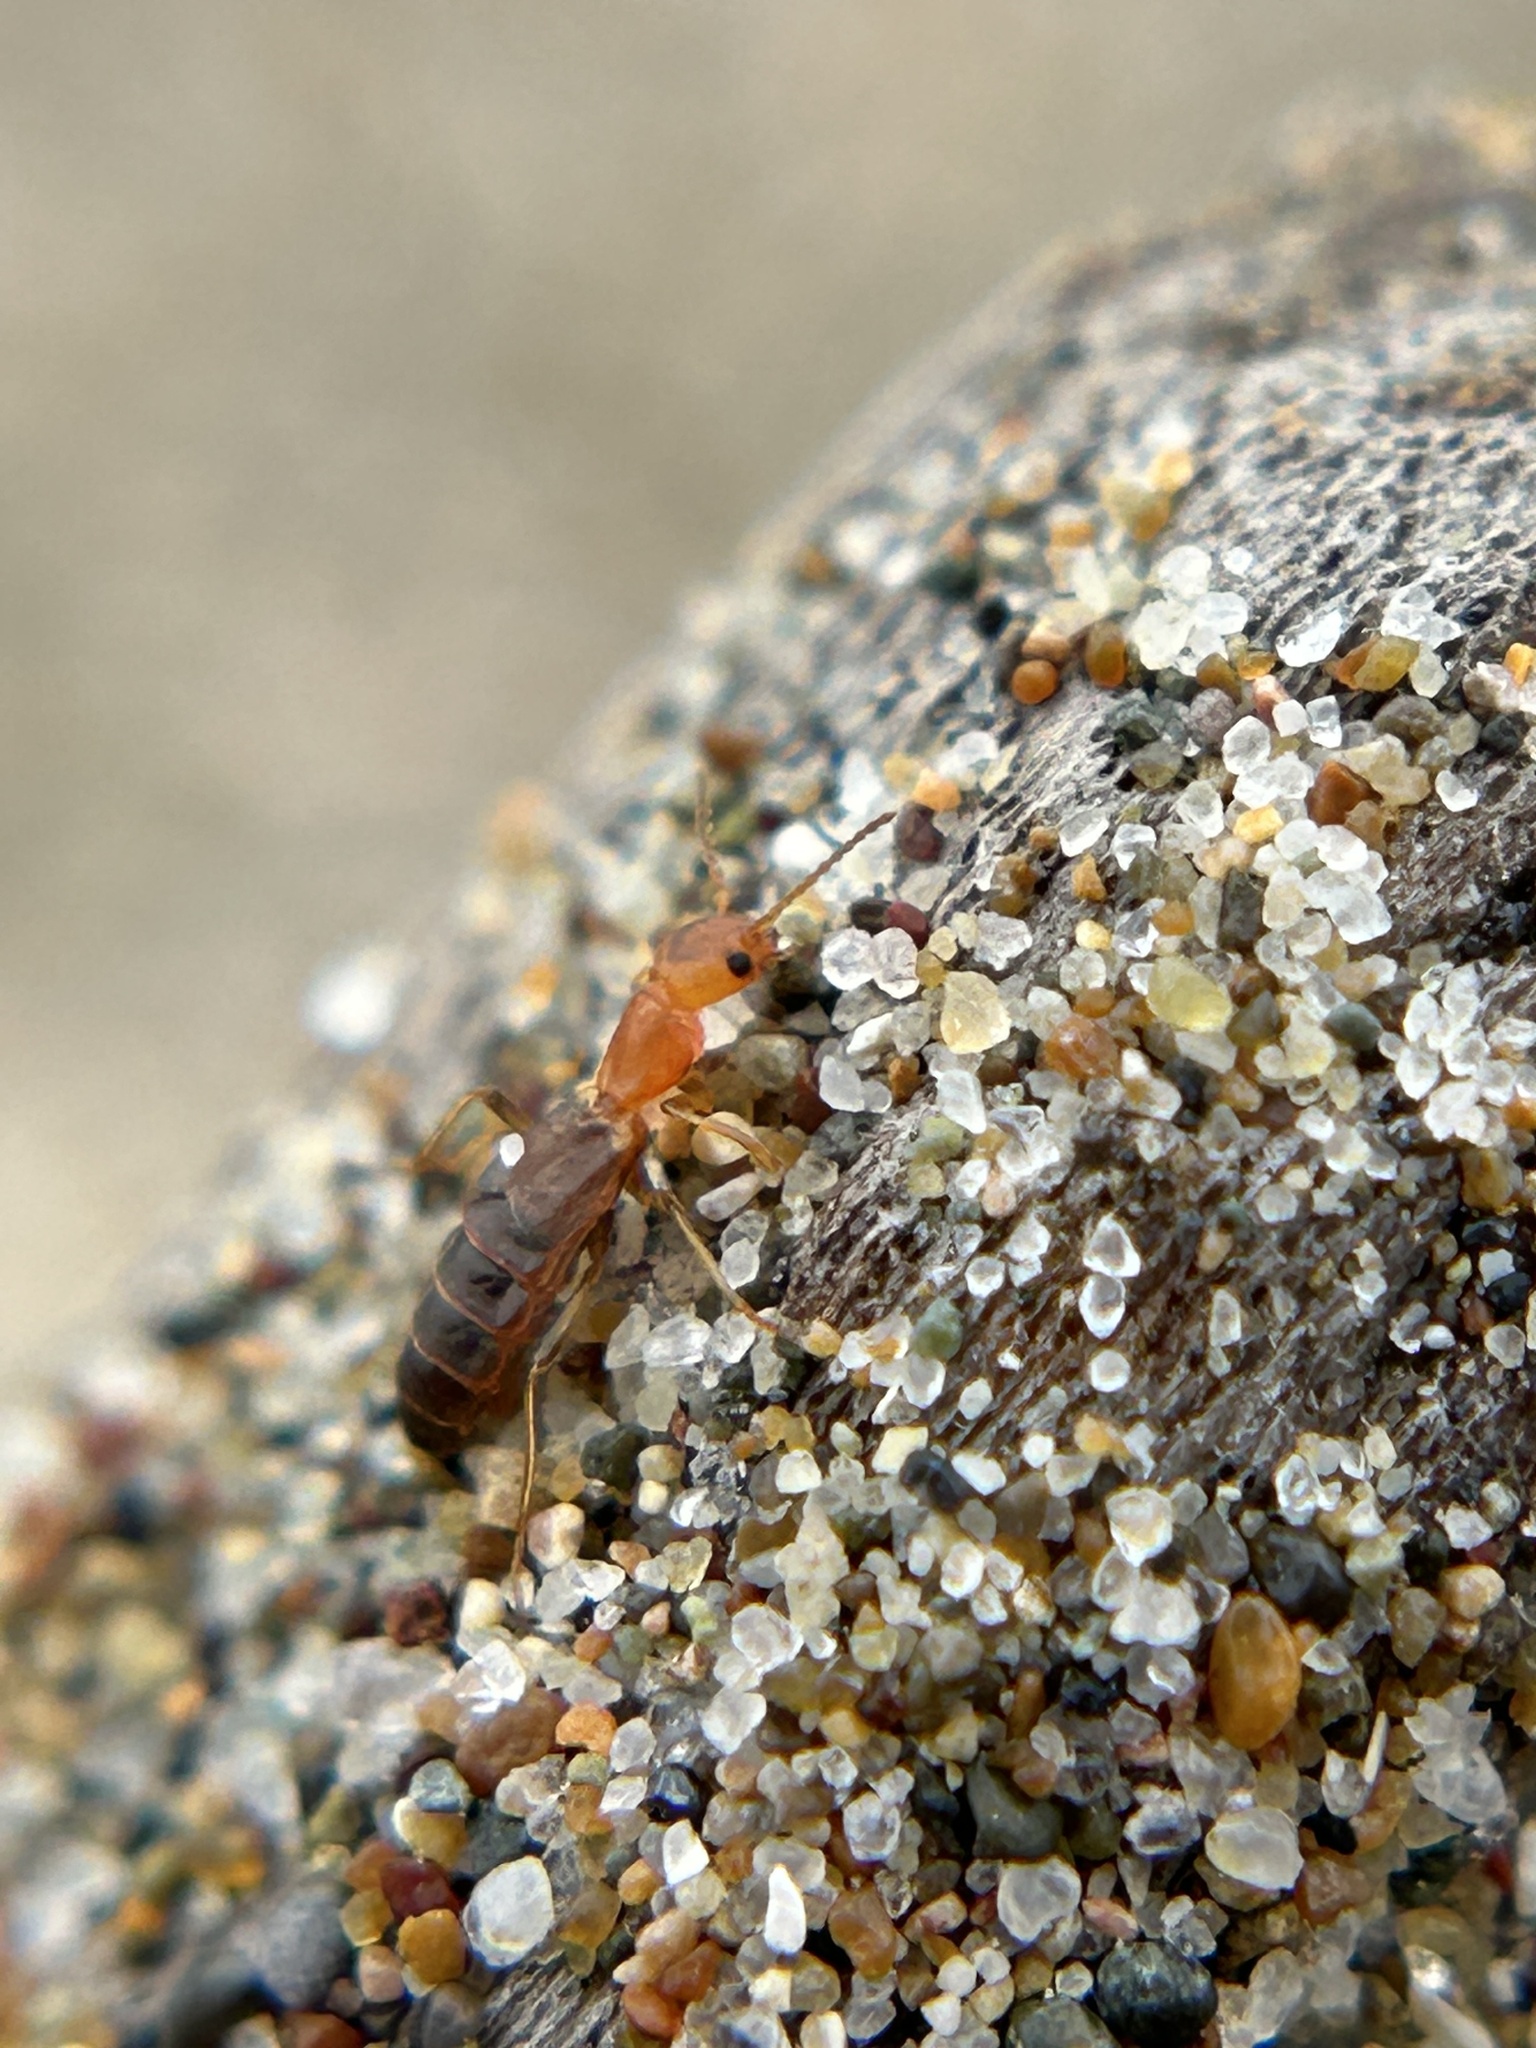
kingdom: Animalia
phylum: Arthropoda
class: Insecta
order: Coleoptera
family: Melyridae
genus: Endeodes
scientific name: Endeodes basalis
